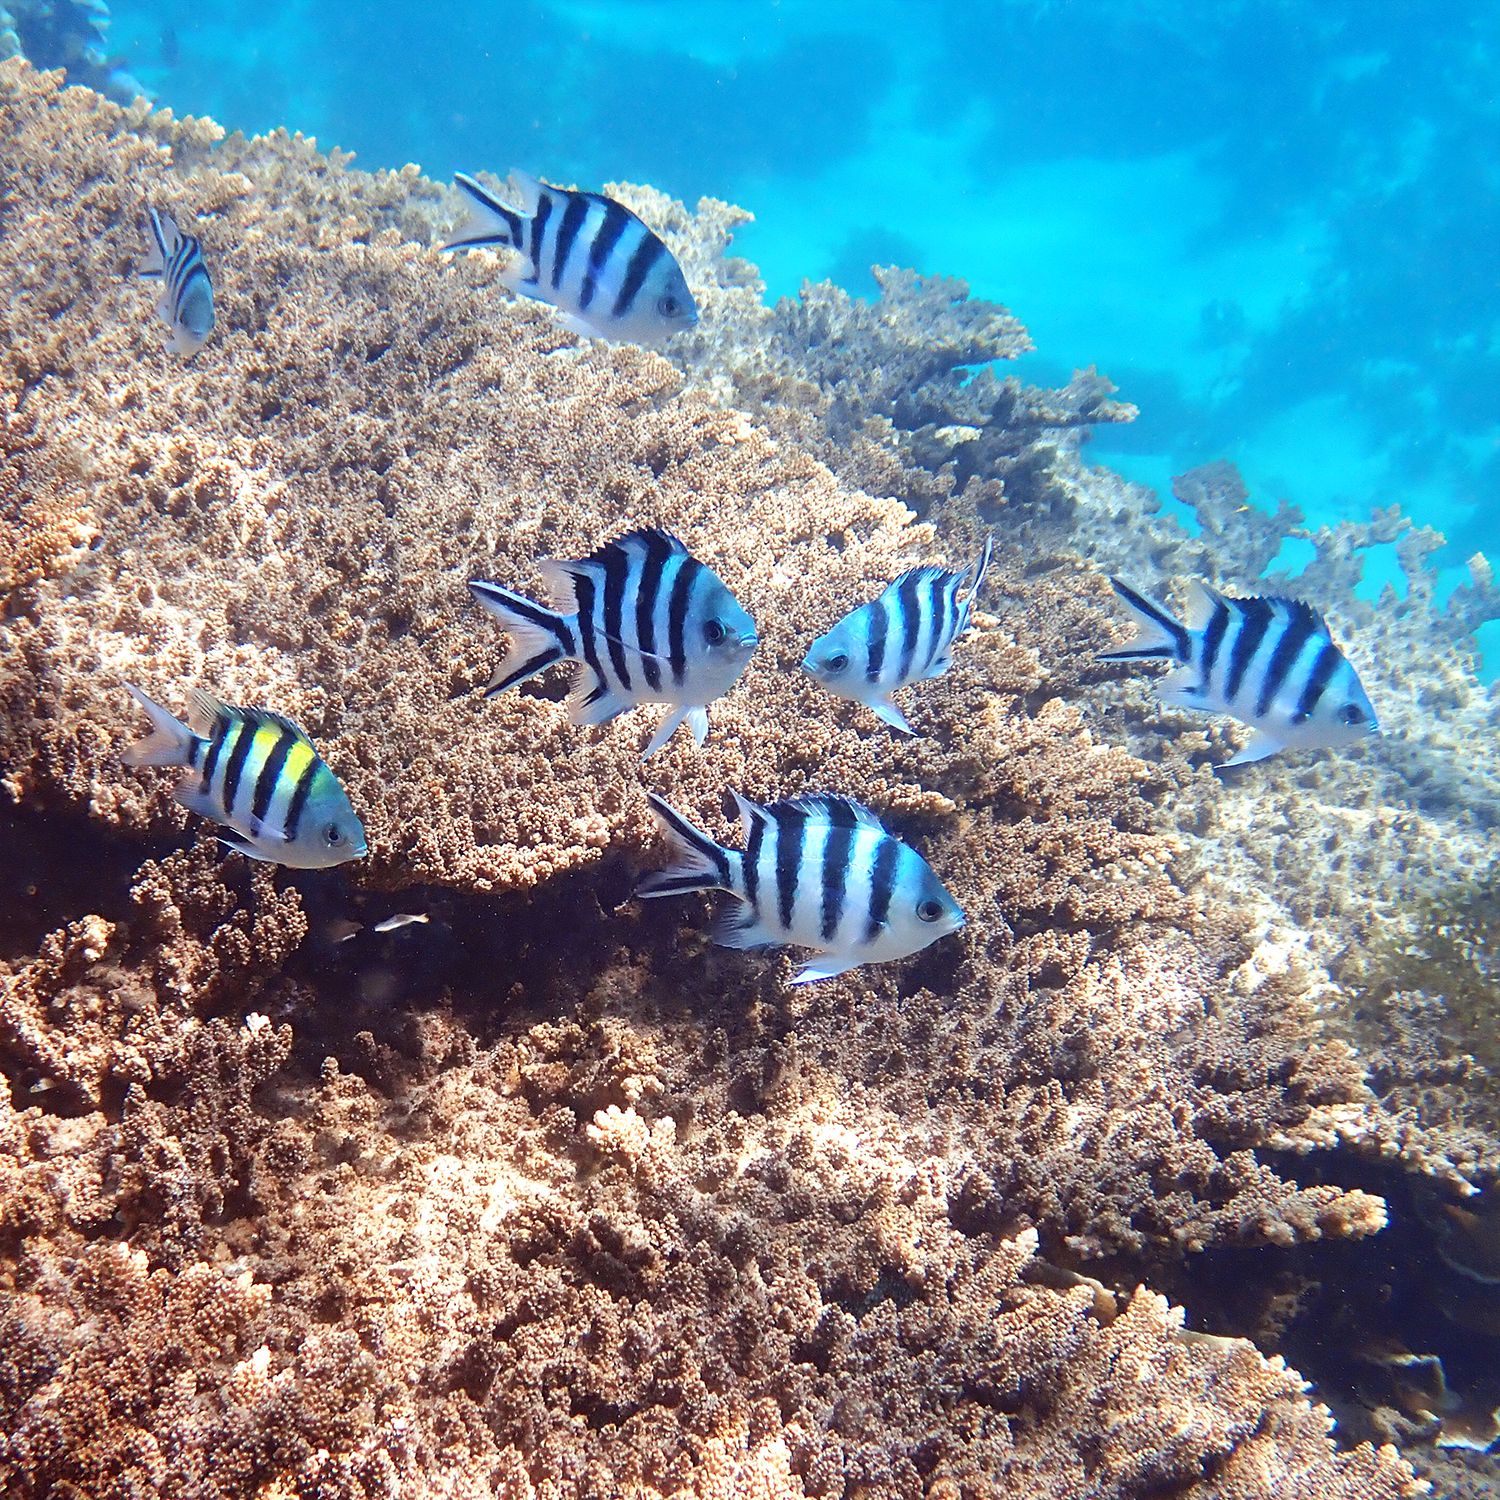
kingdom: Animalia
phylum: Chordata
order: Perciformes
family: Pomacentridae
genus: Abudefduf
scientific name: Abudefduf sexfasciatus
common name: Scissortail sergeant
